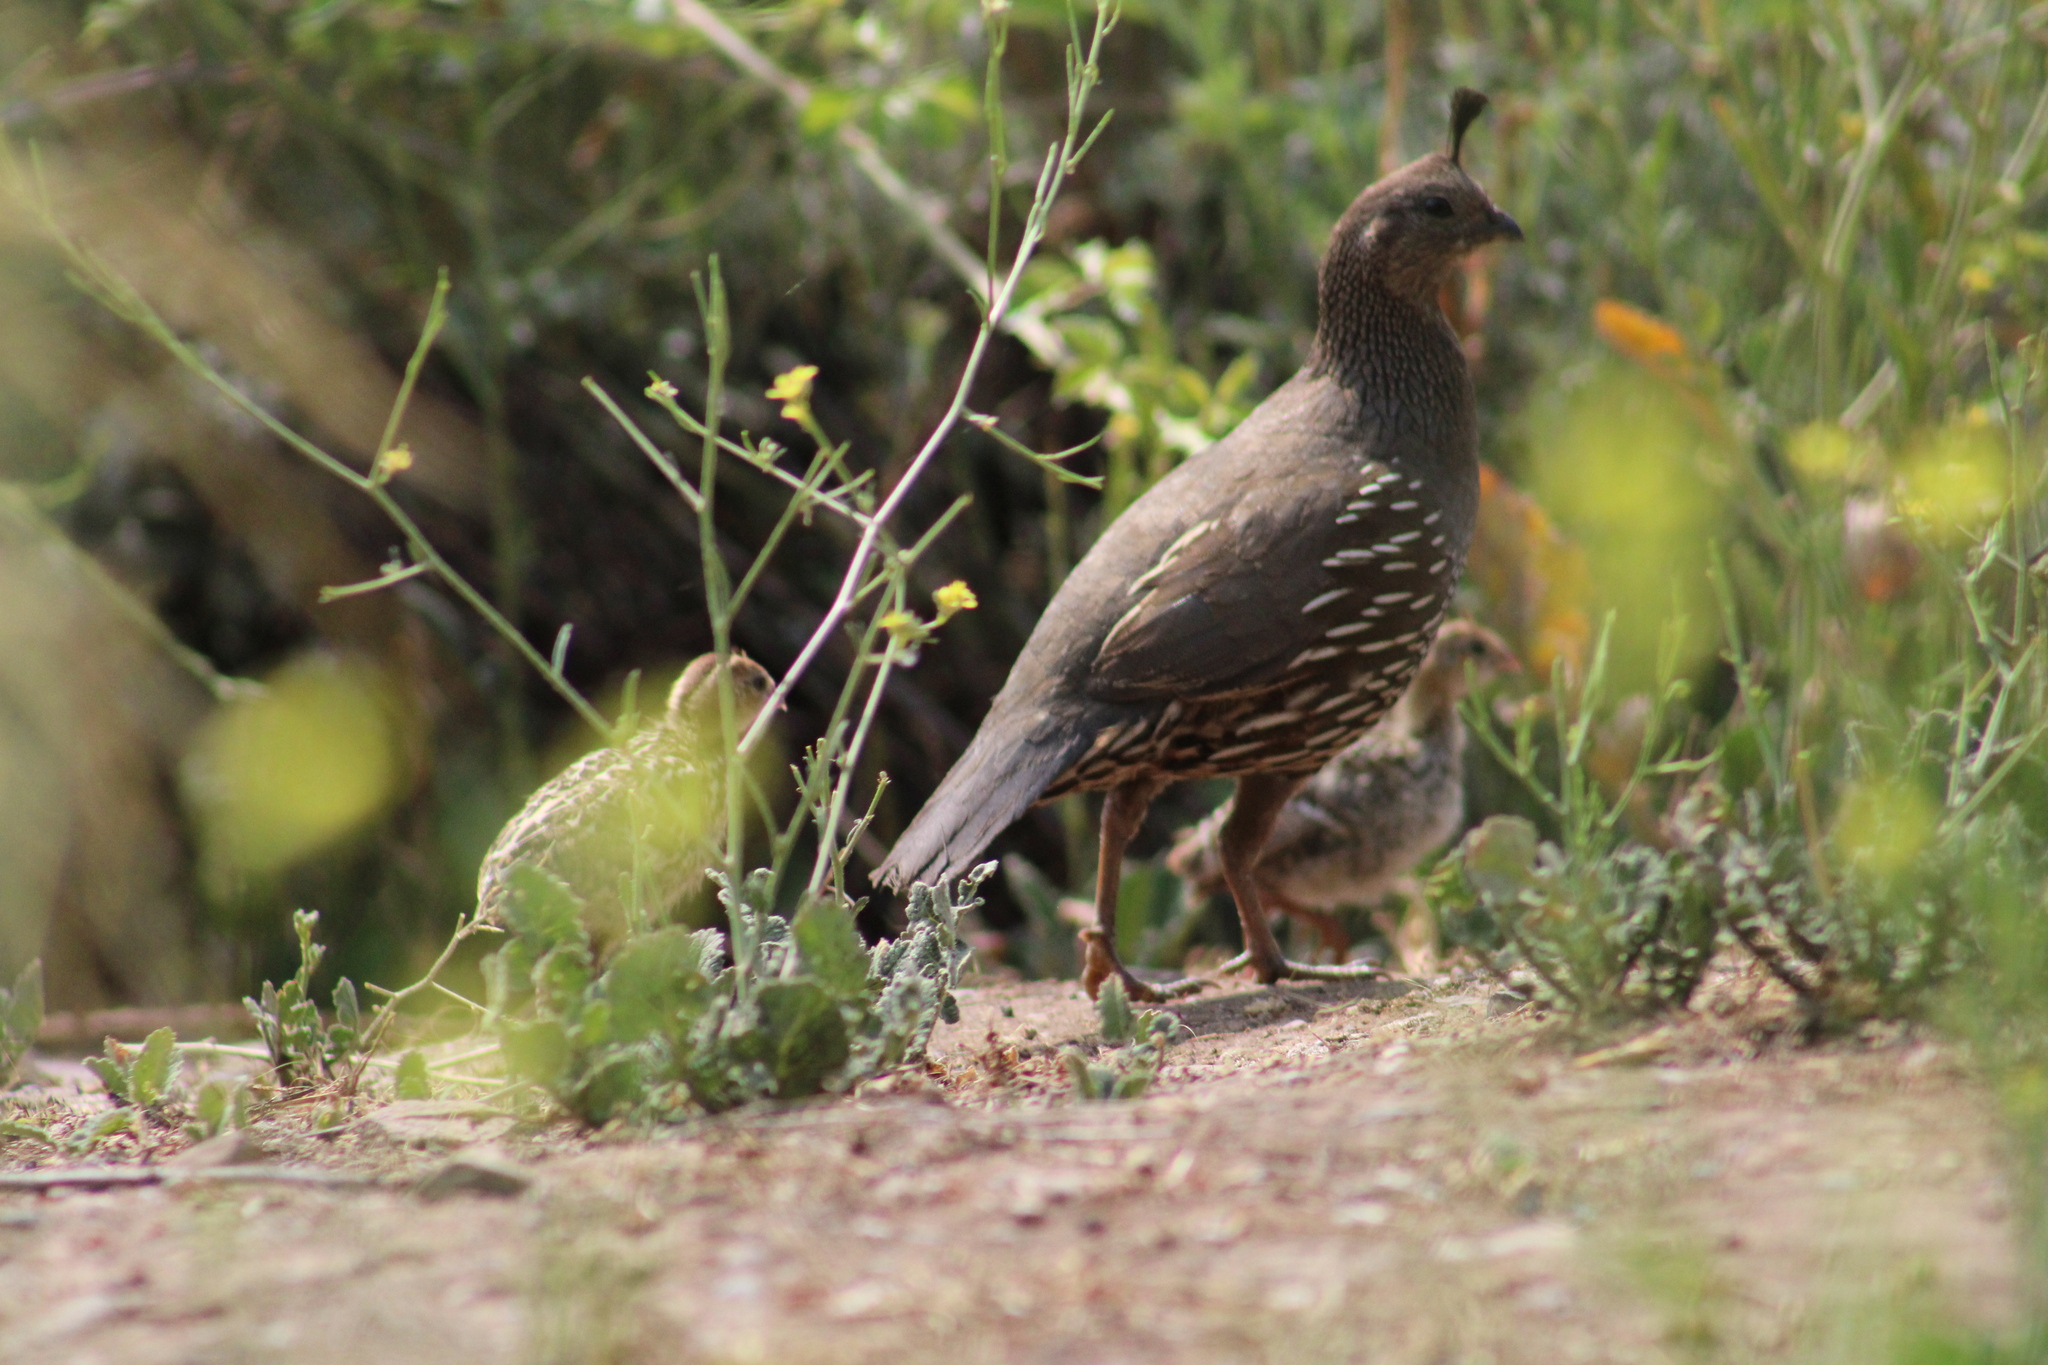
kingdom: Animalia
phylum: Chordata
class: Aves
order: Galliformes
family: Odontophoridae
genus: Callipepla
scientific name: Callipepla californica
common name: California quail
